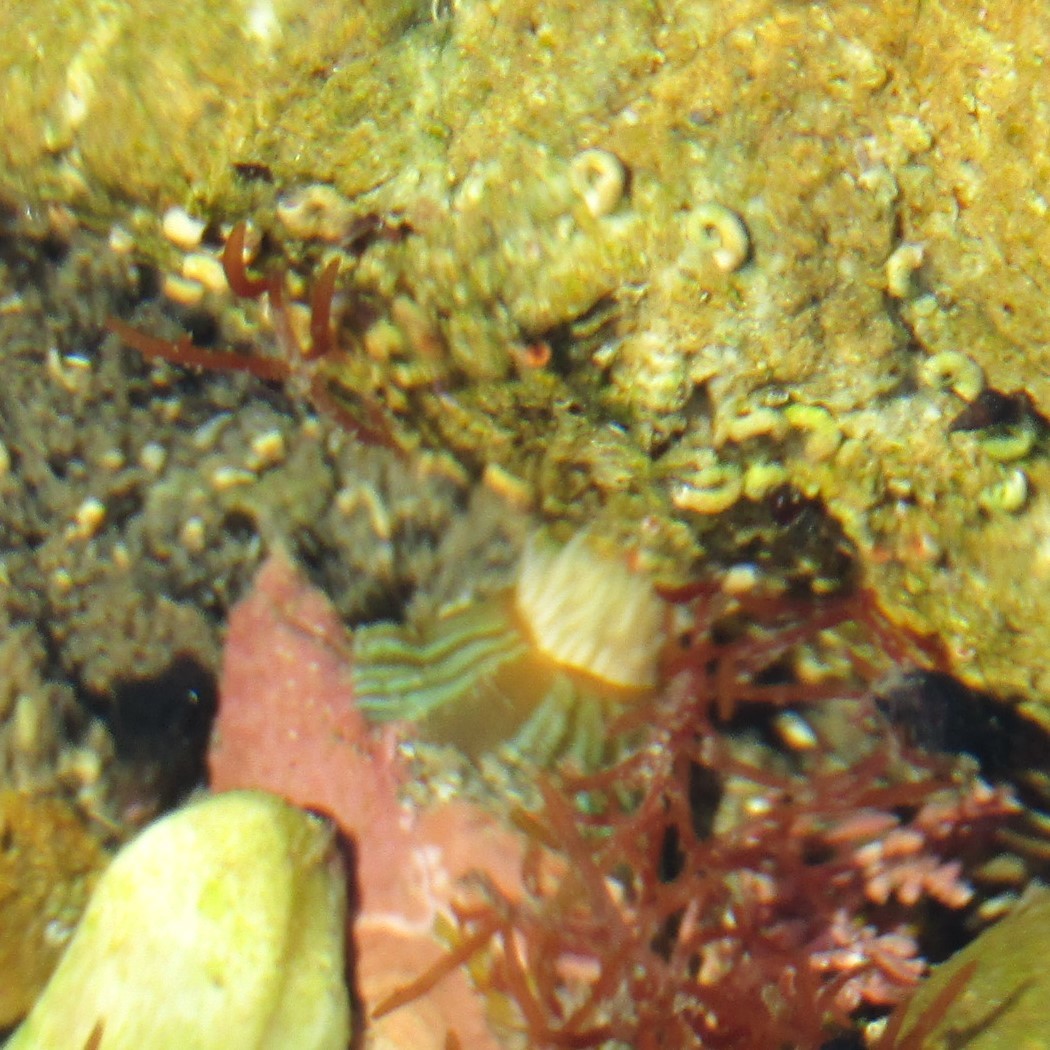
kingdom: Animalia
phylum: Cnidaria
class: Anthozoa
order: Actiniaria
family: Sagartiidae
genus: Anthothoe
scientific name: Anthothoe albocincta
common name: Orange striped anemone
